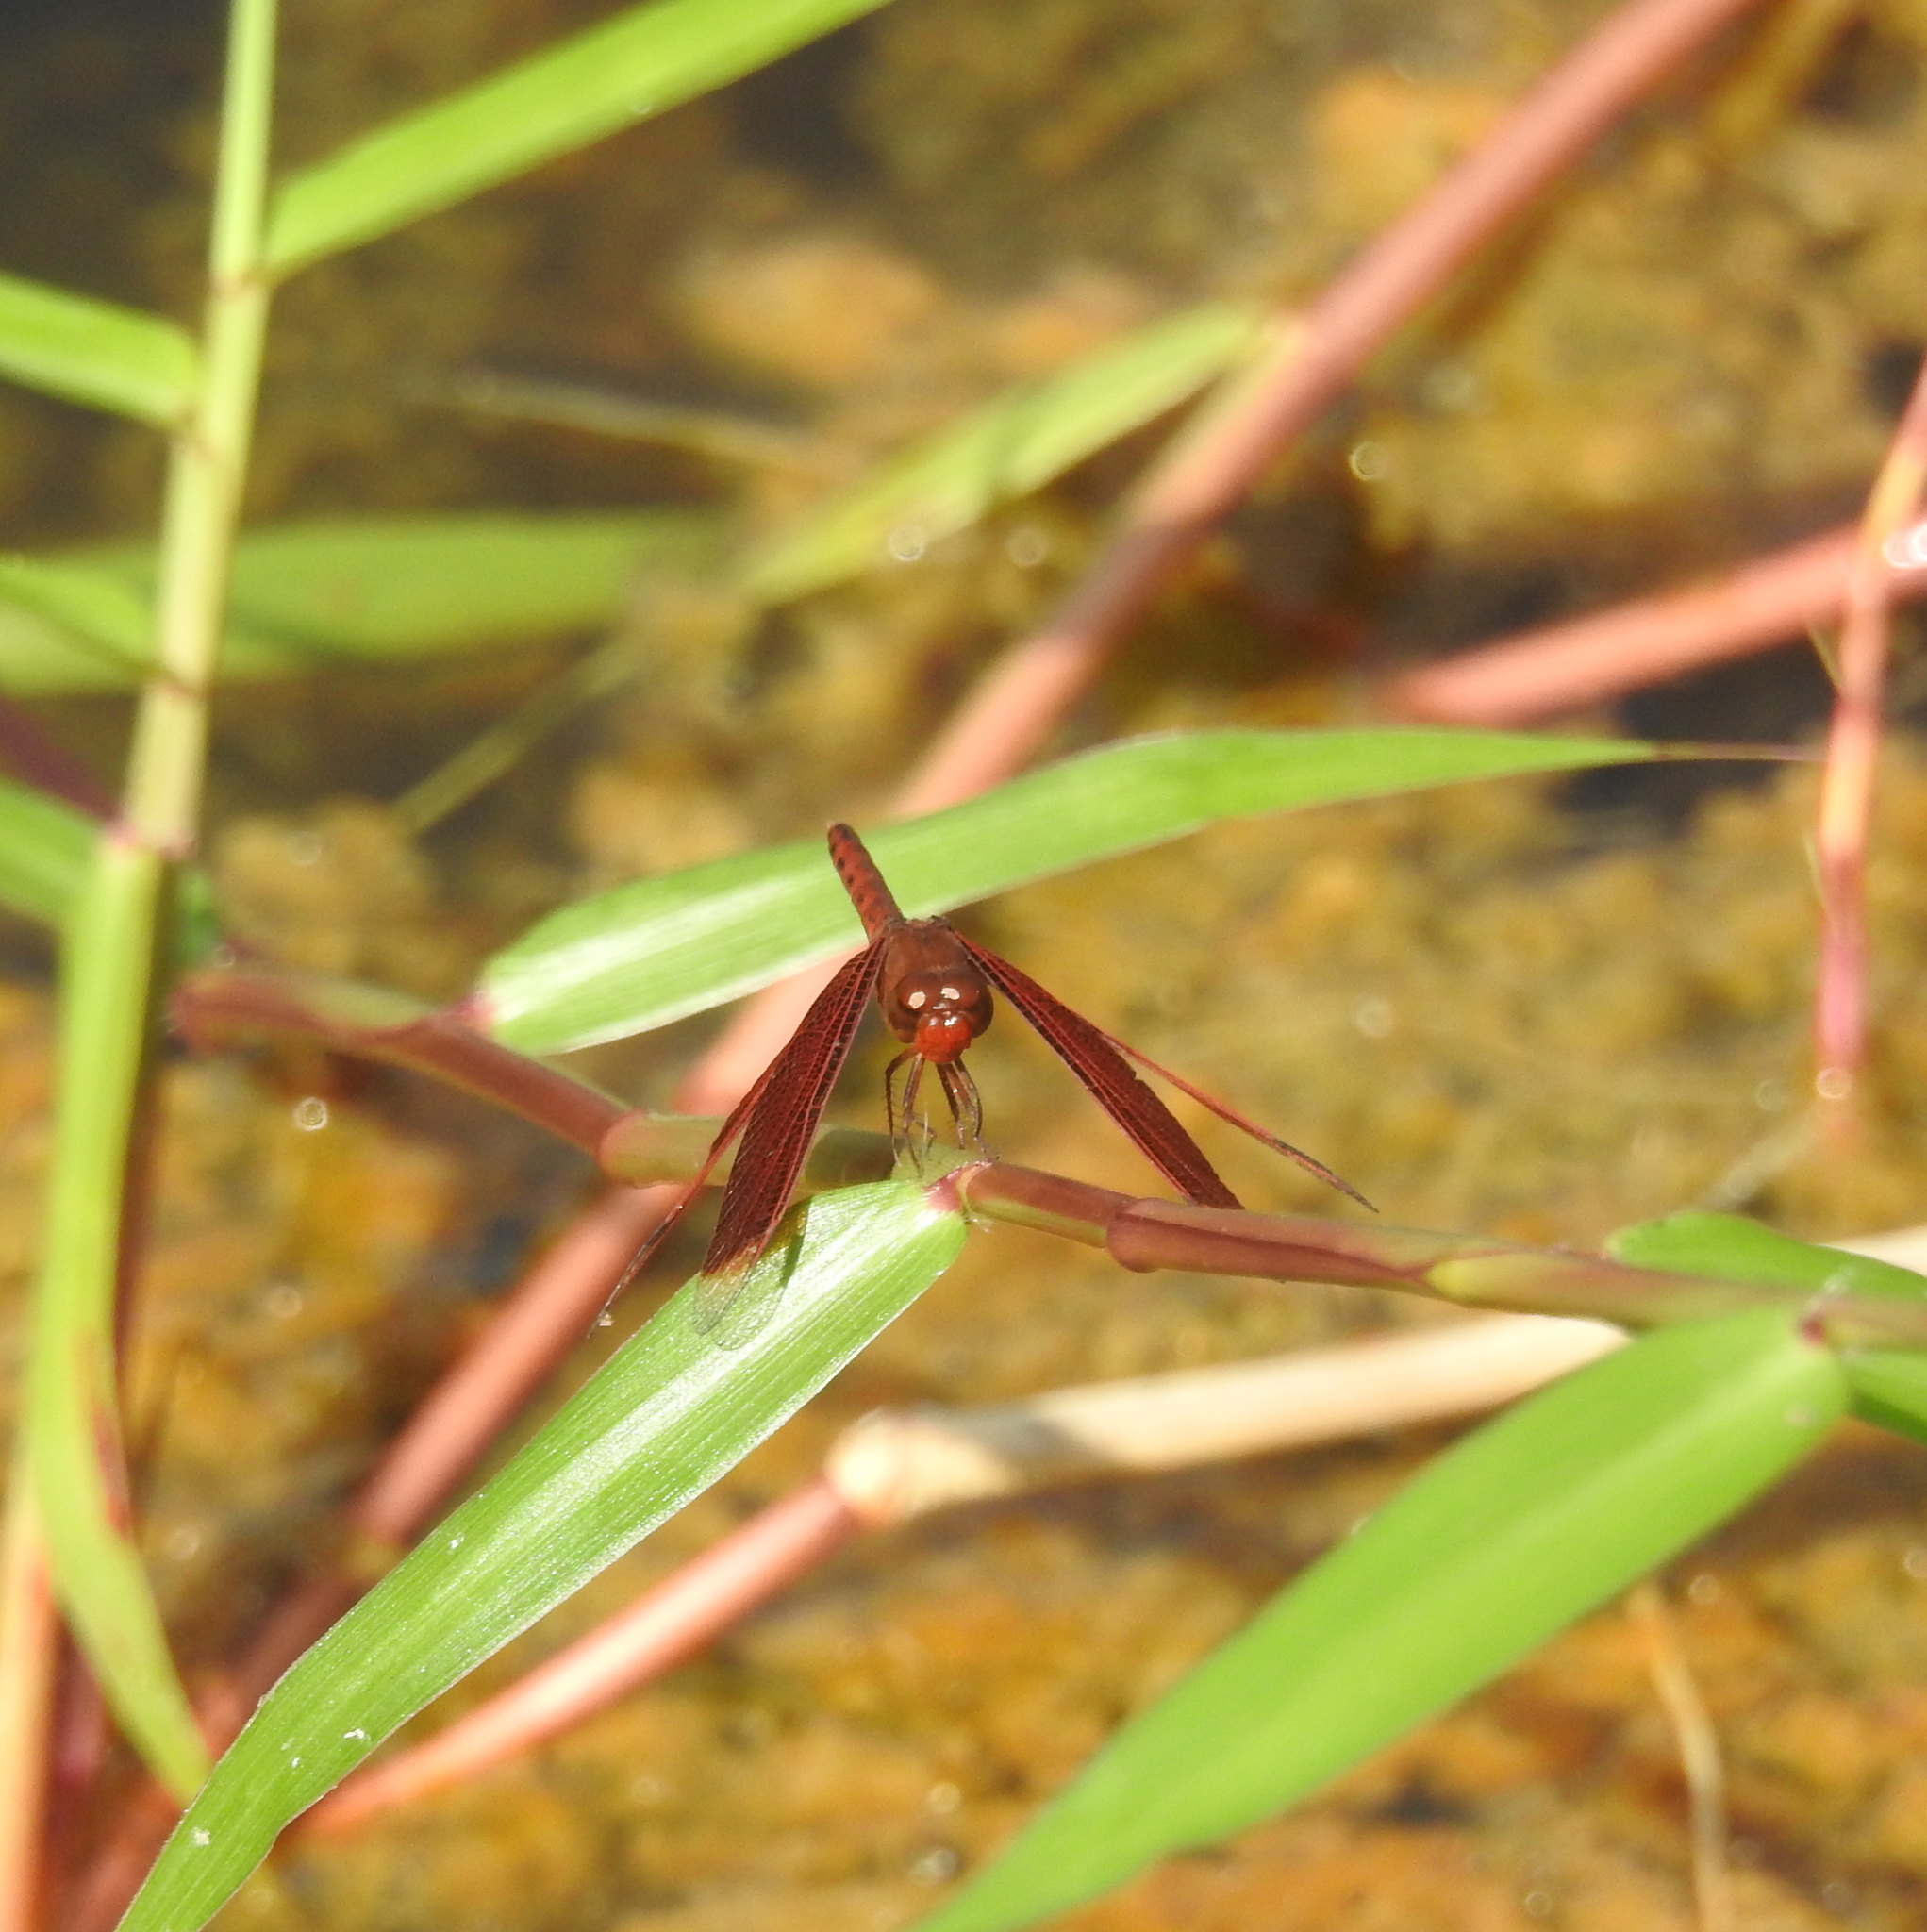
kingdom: Animalia
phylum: Arthropoda
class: Insecta
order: Odonata
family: Libellulidae
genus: Neurothemis
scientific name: Neurothemis fluctuans
